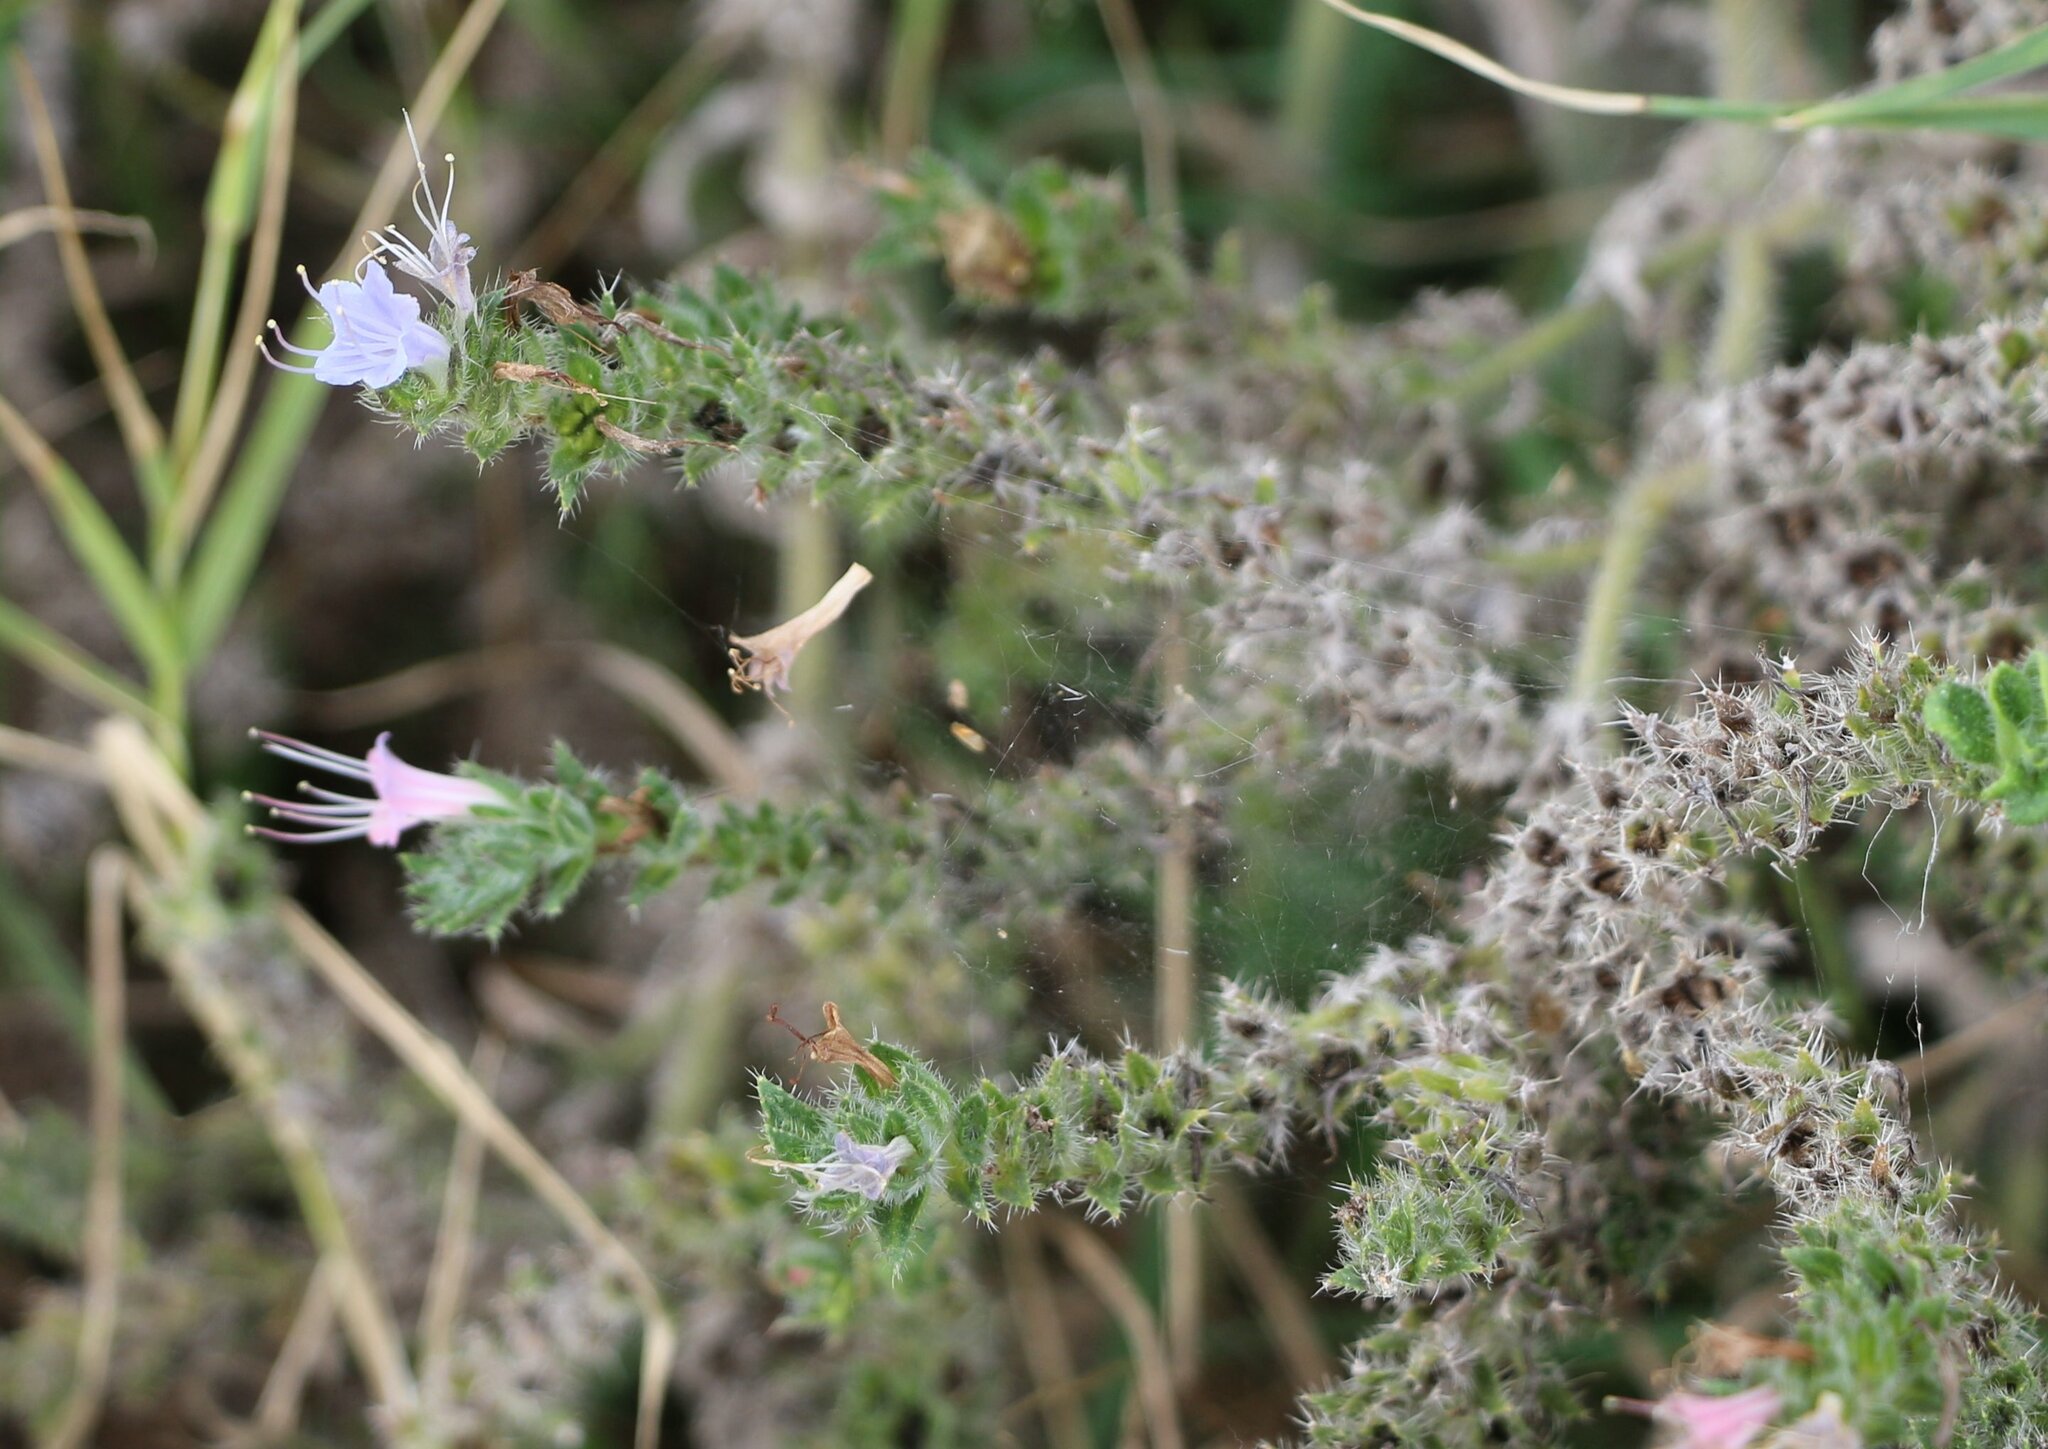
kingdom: Plantae
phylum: Tracheophyta
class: Magnoliopsida
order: Boraginales
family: Boraginaceae
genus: Echium
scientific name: Echium italicum
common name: Italian viper's bugloss
